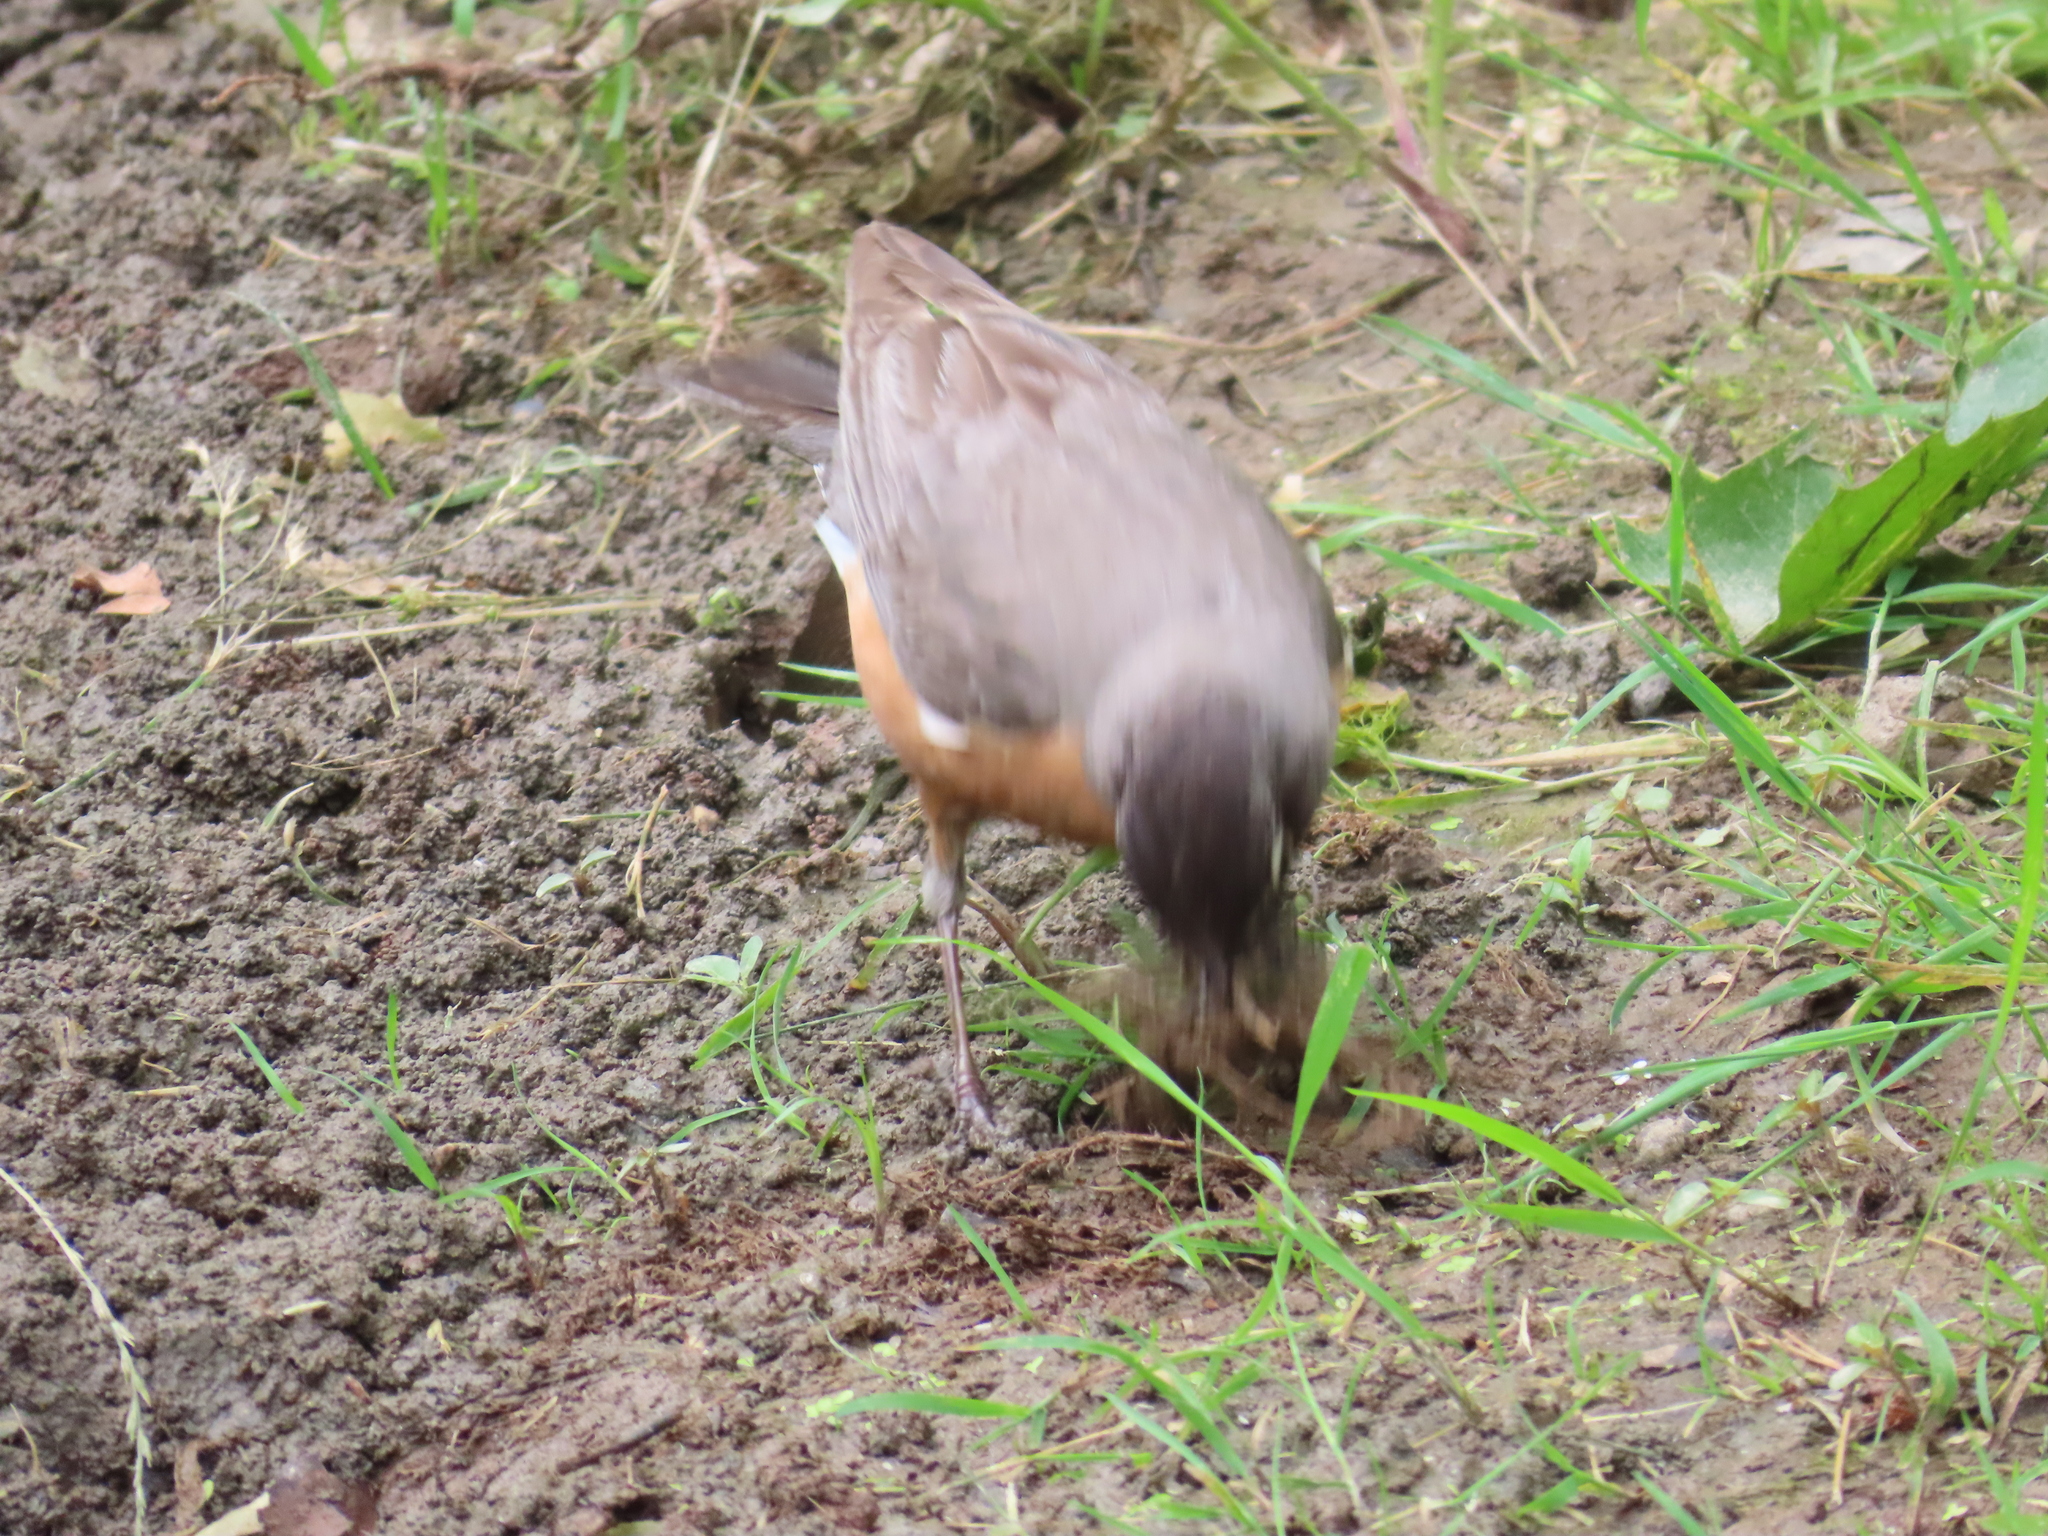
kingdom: Animalia
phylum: Chordata
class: Aves
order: Passeriformes
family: Turdidae
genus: Turdus
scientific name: Turdus migratorius
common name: American robin
